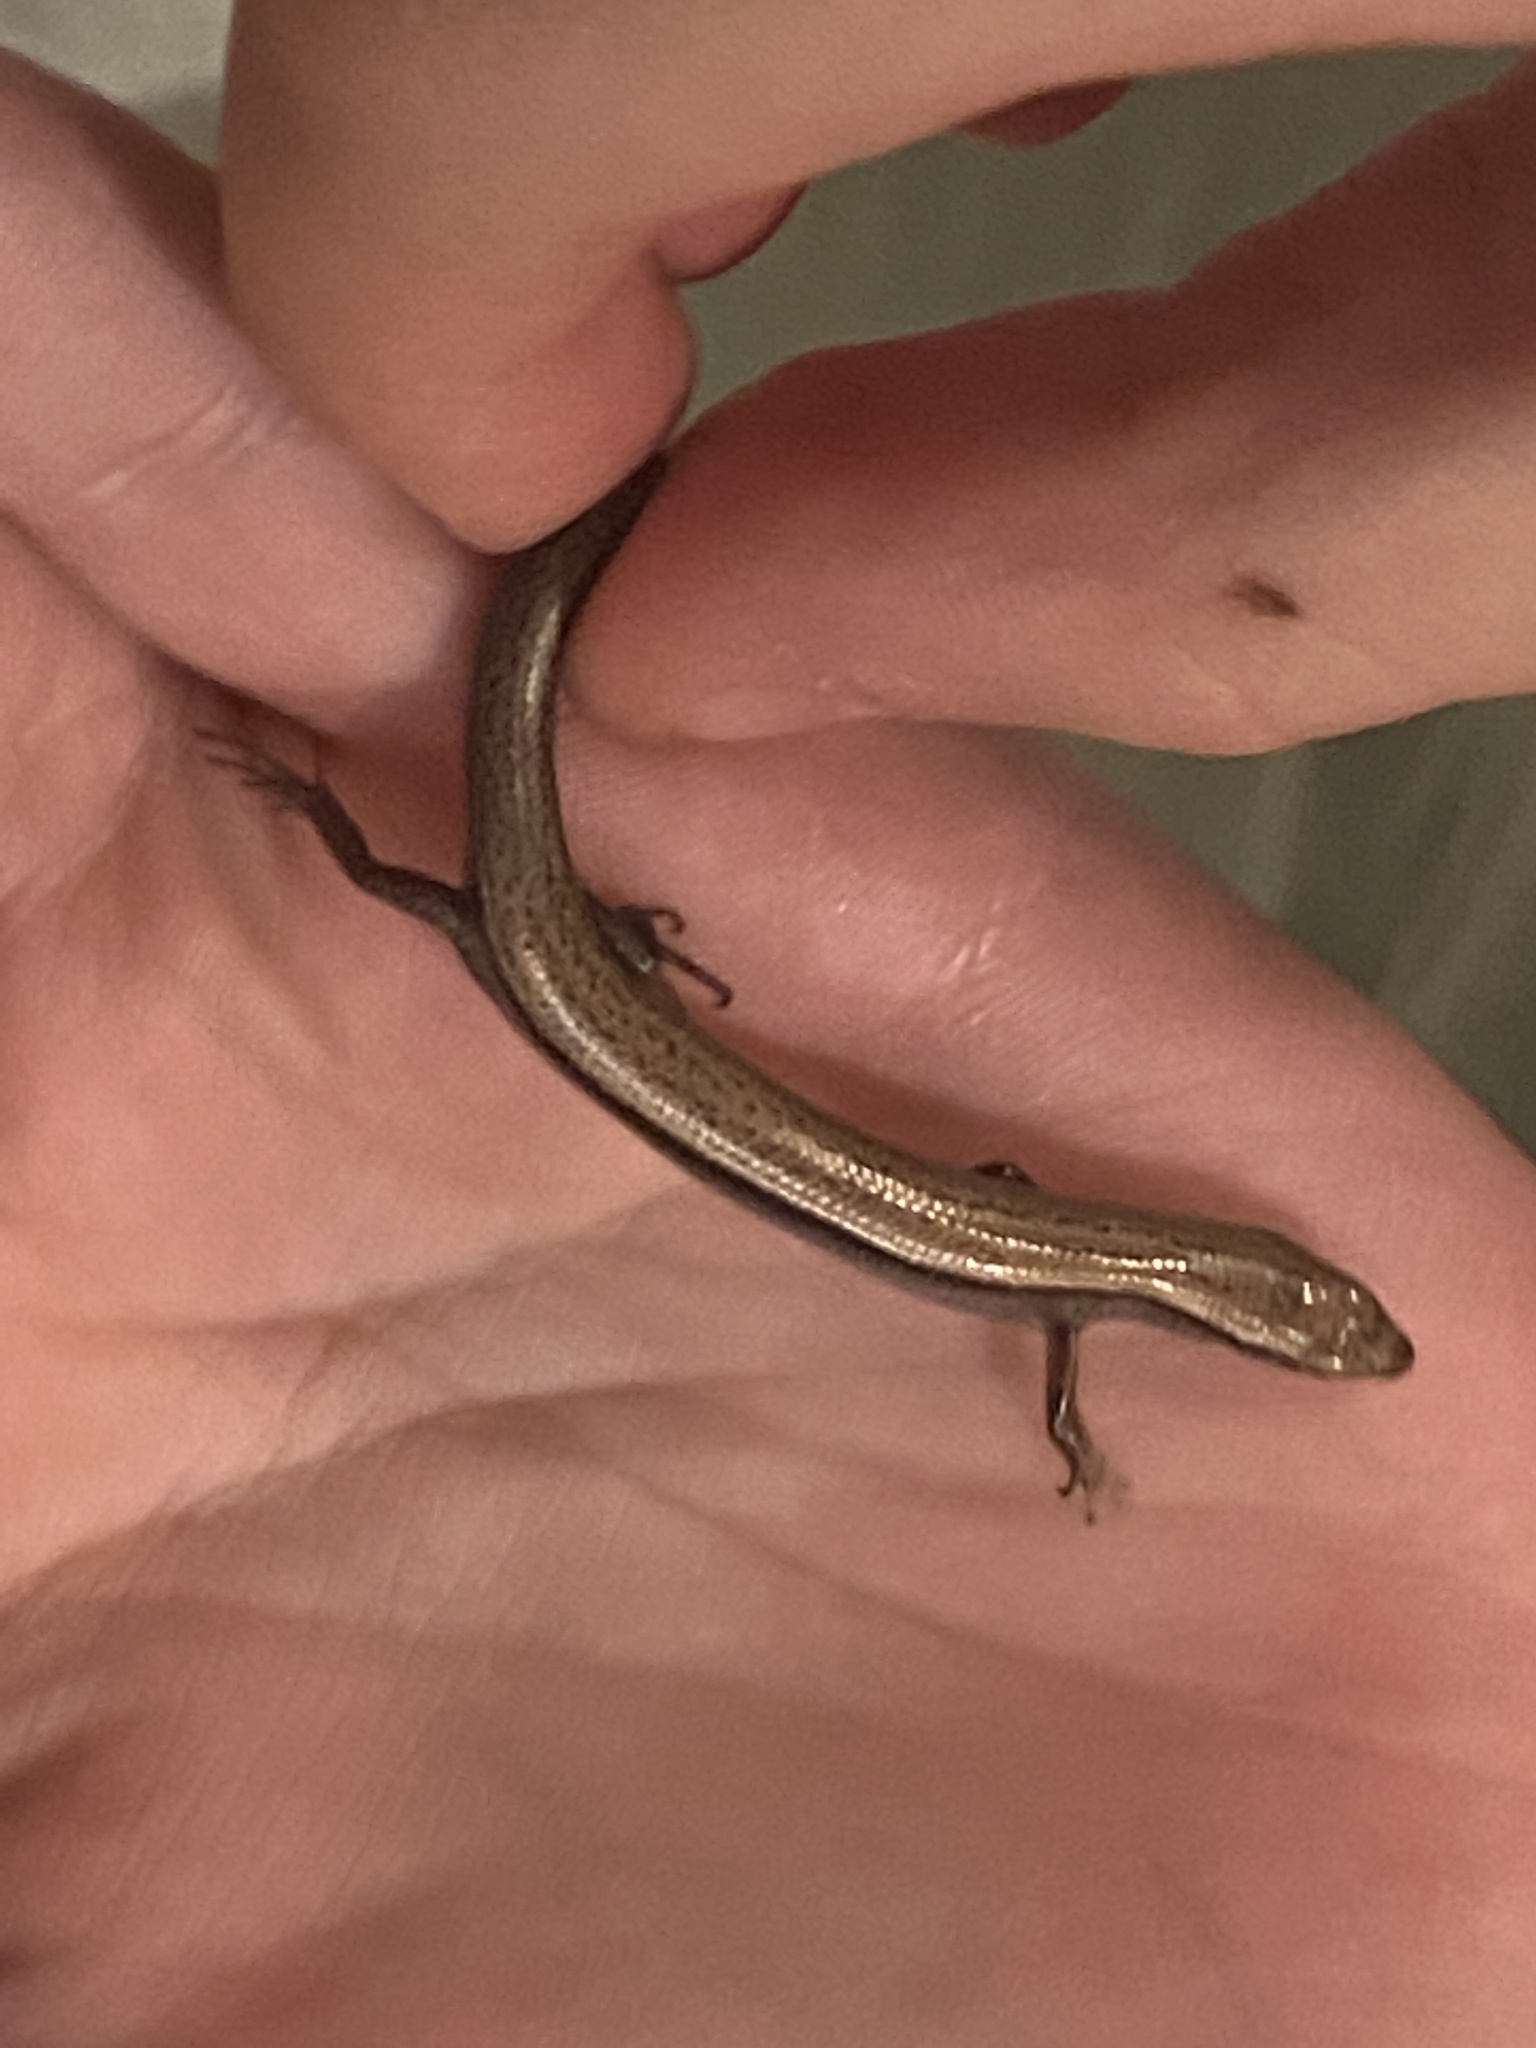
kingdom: Animalia
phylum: Chordata
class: Squamata
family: Scincidae
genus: Scincella
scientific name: Scincella lateralis
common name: Ground skink
